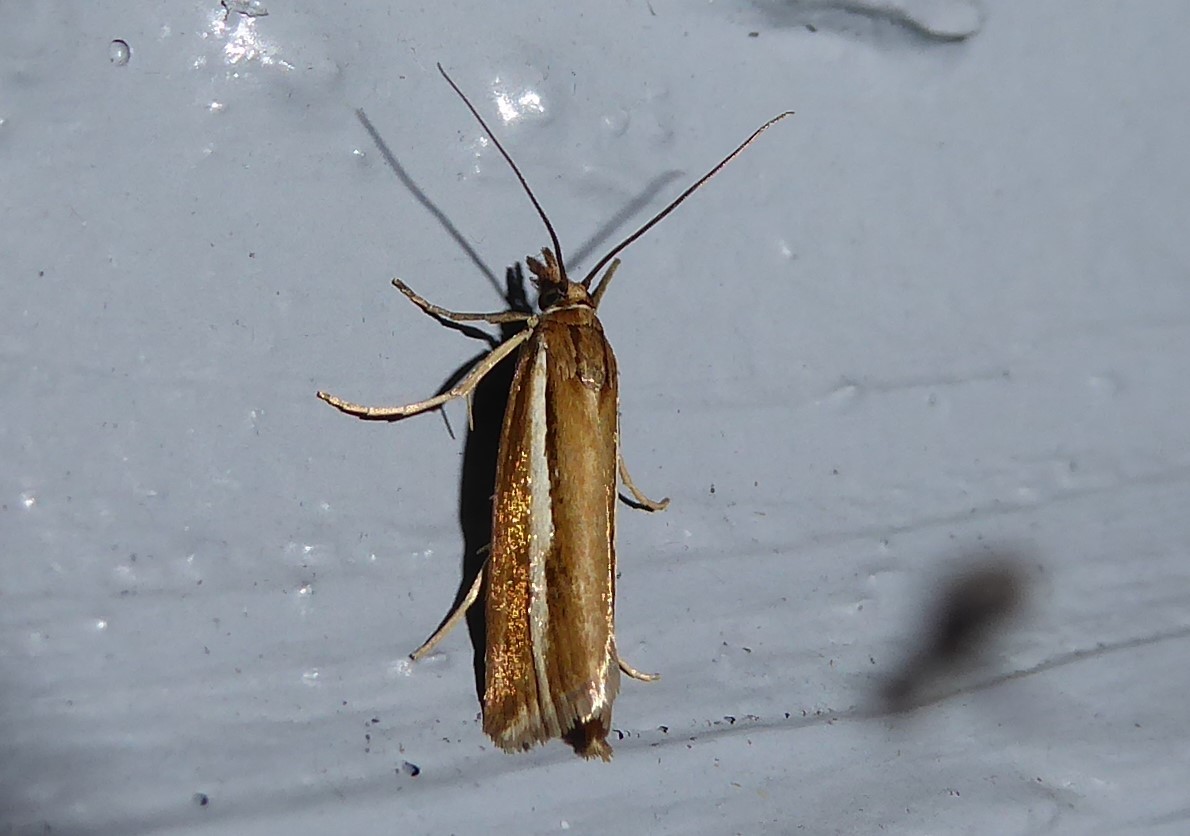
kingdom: Animalia
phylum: Arthropoda
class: Insecta
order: Lepidoptera
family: Crambidae
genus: Orocrambus
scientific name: Orocrambus aethonellus
